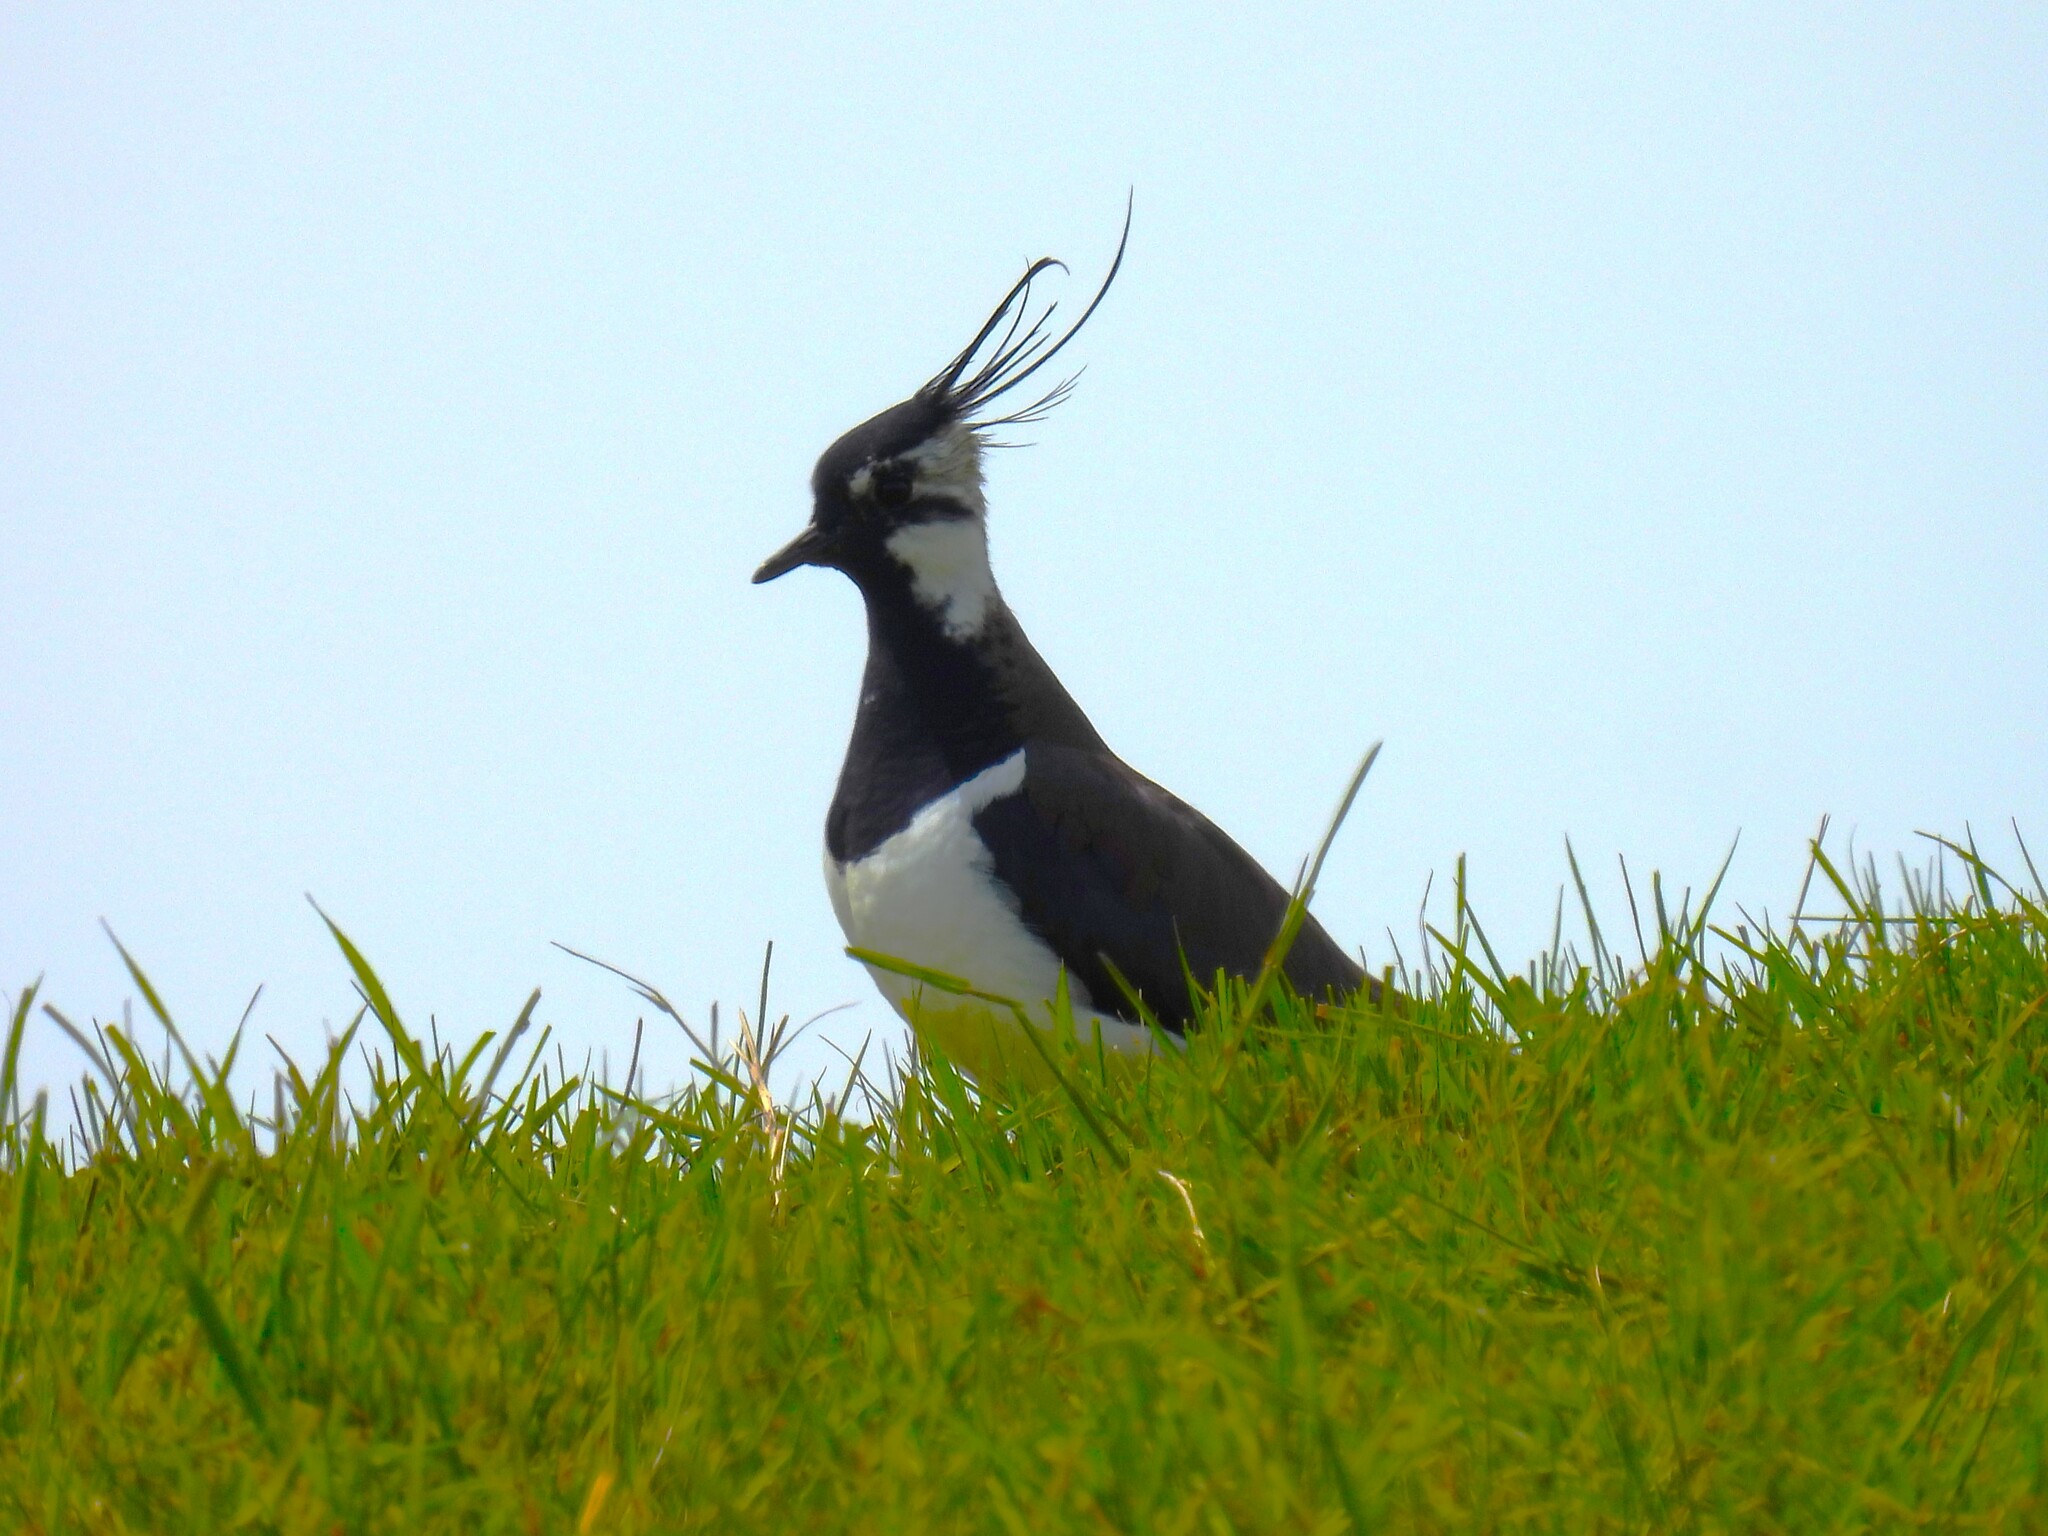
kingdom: Animalia
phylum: Chordata
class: Aves
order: Charadriiformes
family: Charadriidae
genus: Vanellus
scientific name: Vanellus vanellus
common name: Northern lapwing
